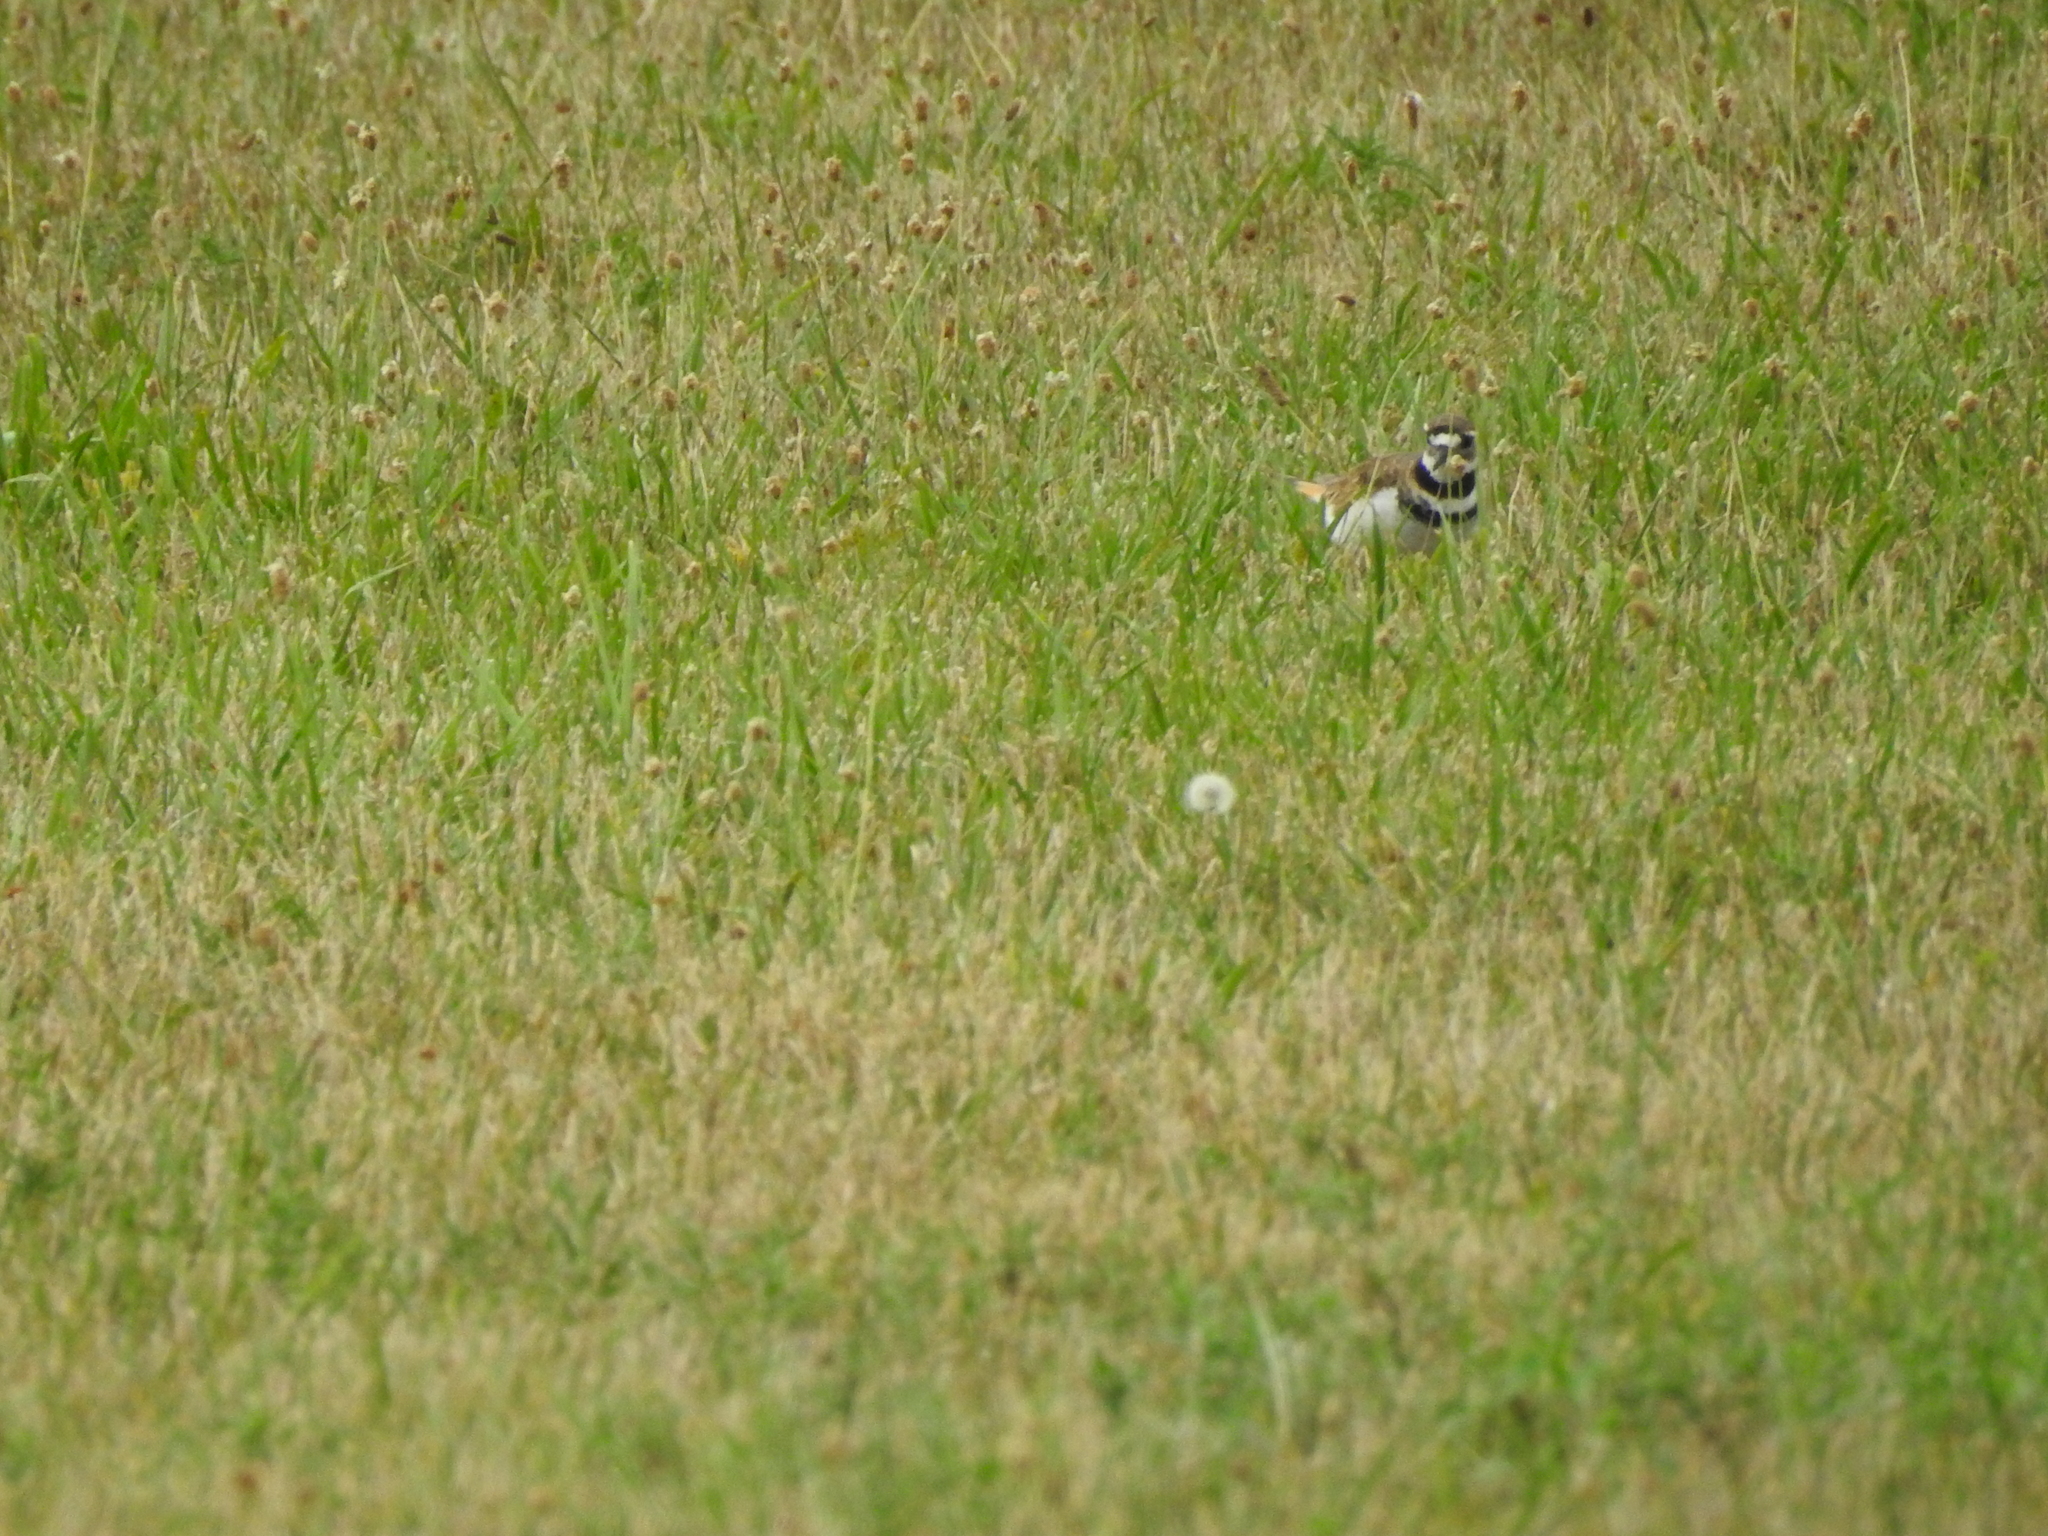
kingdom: Animalia
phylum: Chordata
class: Aves
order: Charadriiformes
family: Charadriidae
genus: Charadrius
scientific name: Charadrius vociferus
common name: Killdeer
